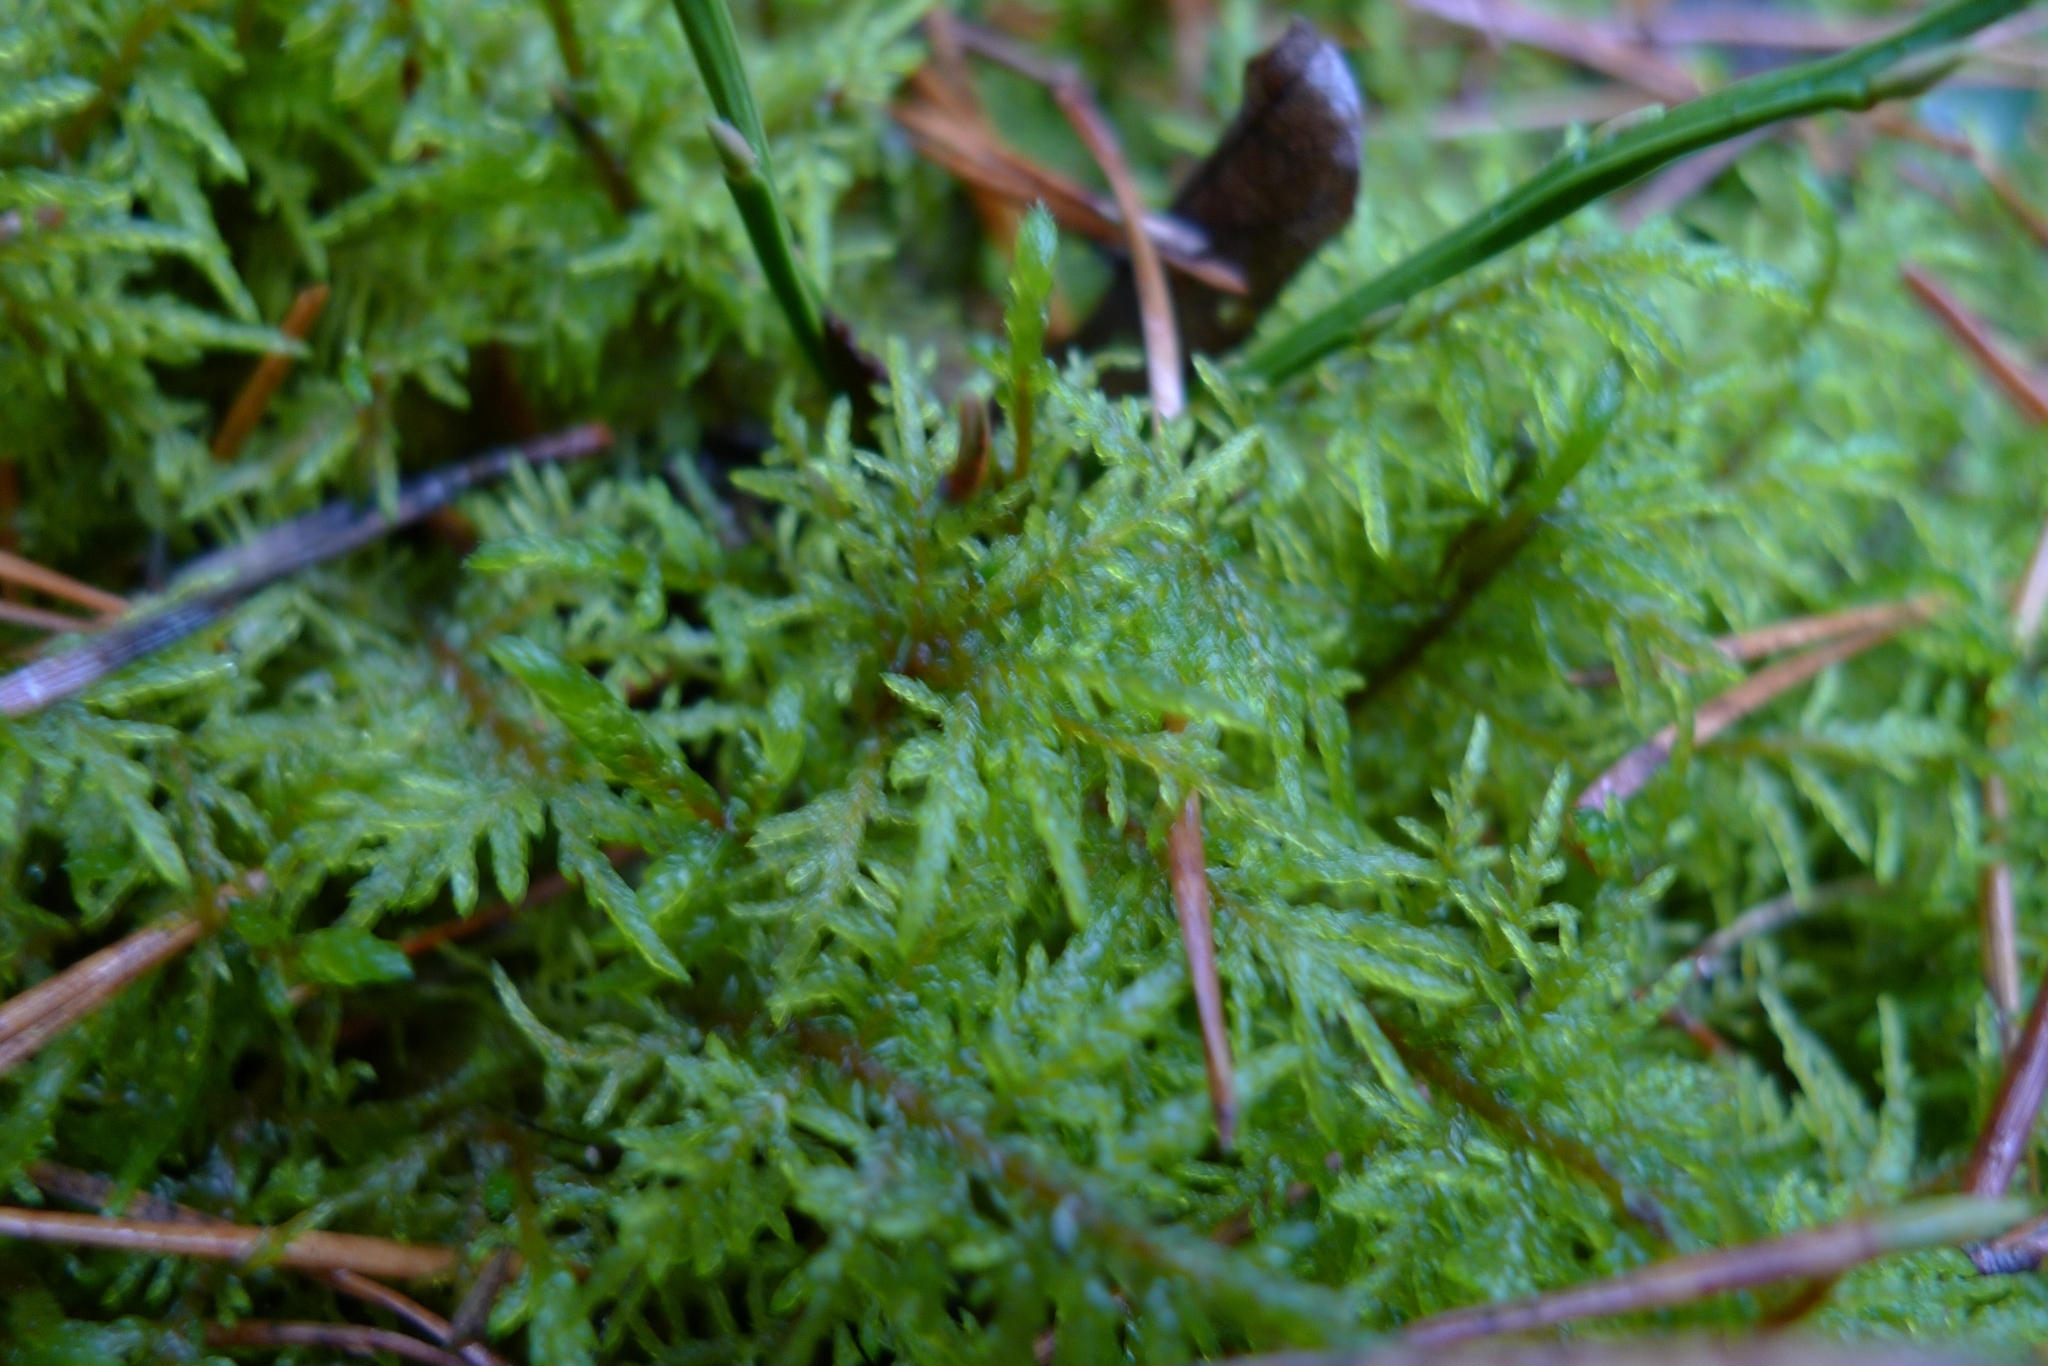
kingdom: Plantae
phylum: Bryophyta
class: Bryopsida
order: Hypnales
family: Hylocomiaceae
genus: Hylocomium
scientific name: Hylocomium splendens
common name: Stairstep moss
